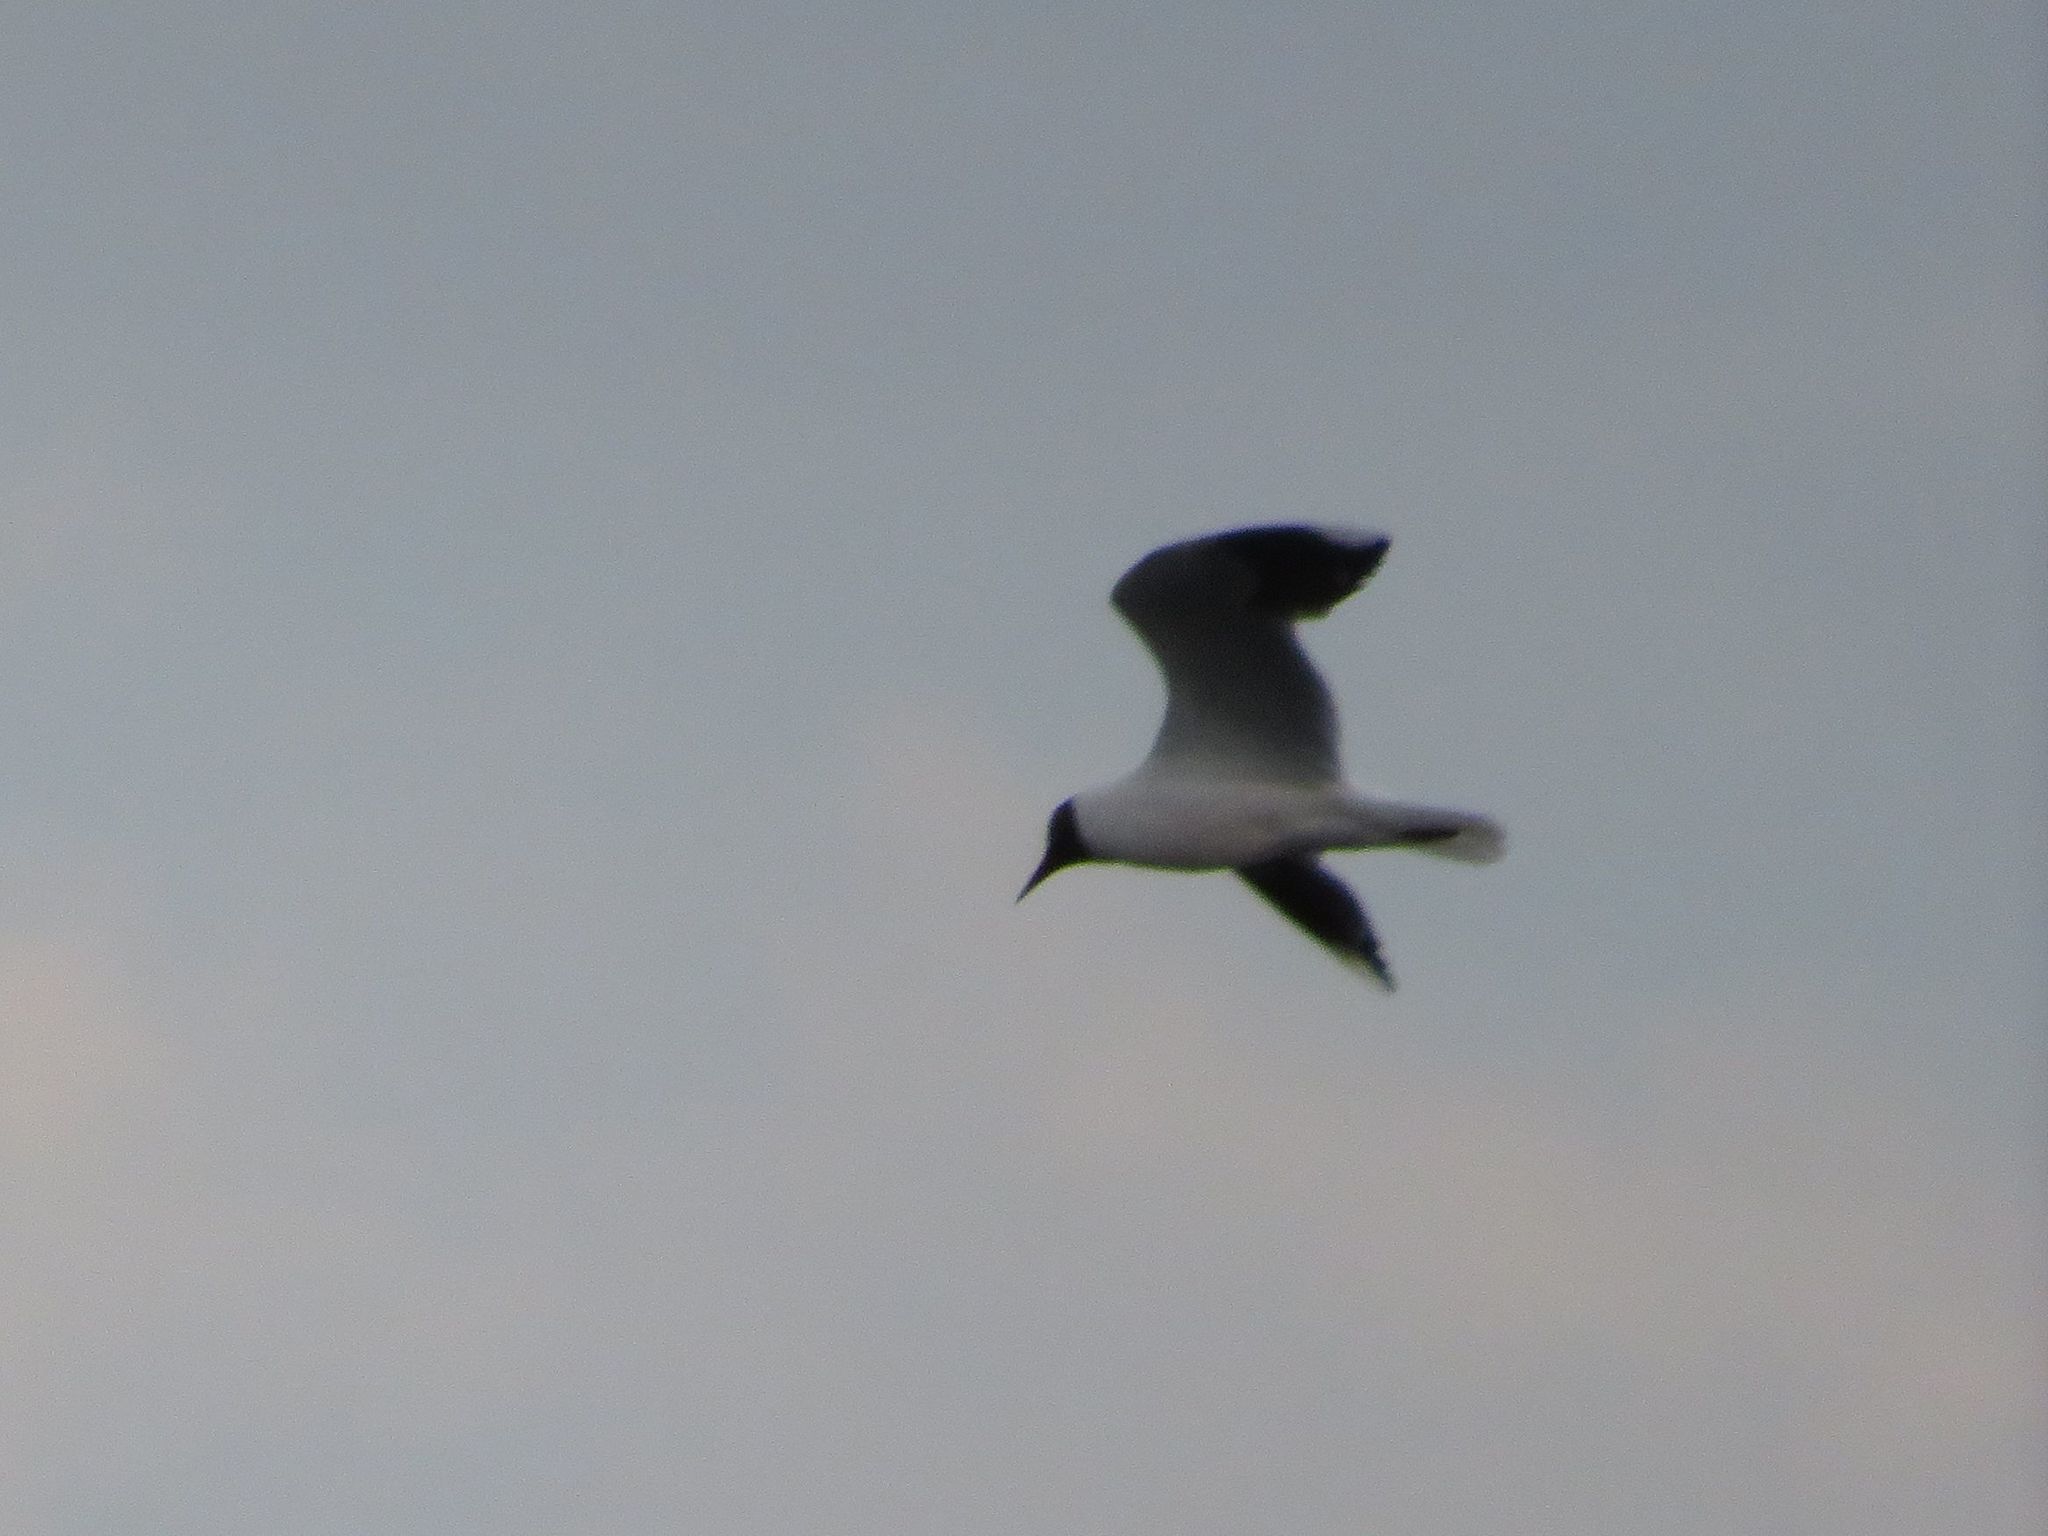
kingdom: Animalia
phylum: Chordata
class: Aves
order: Charadriiformes
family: Laridae
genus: Chroicocephalus
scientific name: Chroicocephalus maculipennis
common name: Brown-hooded gull
